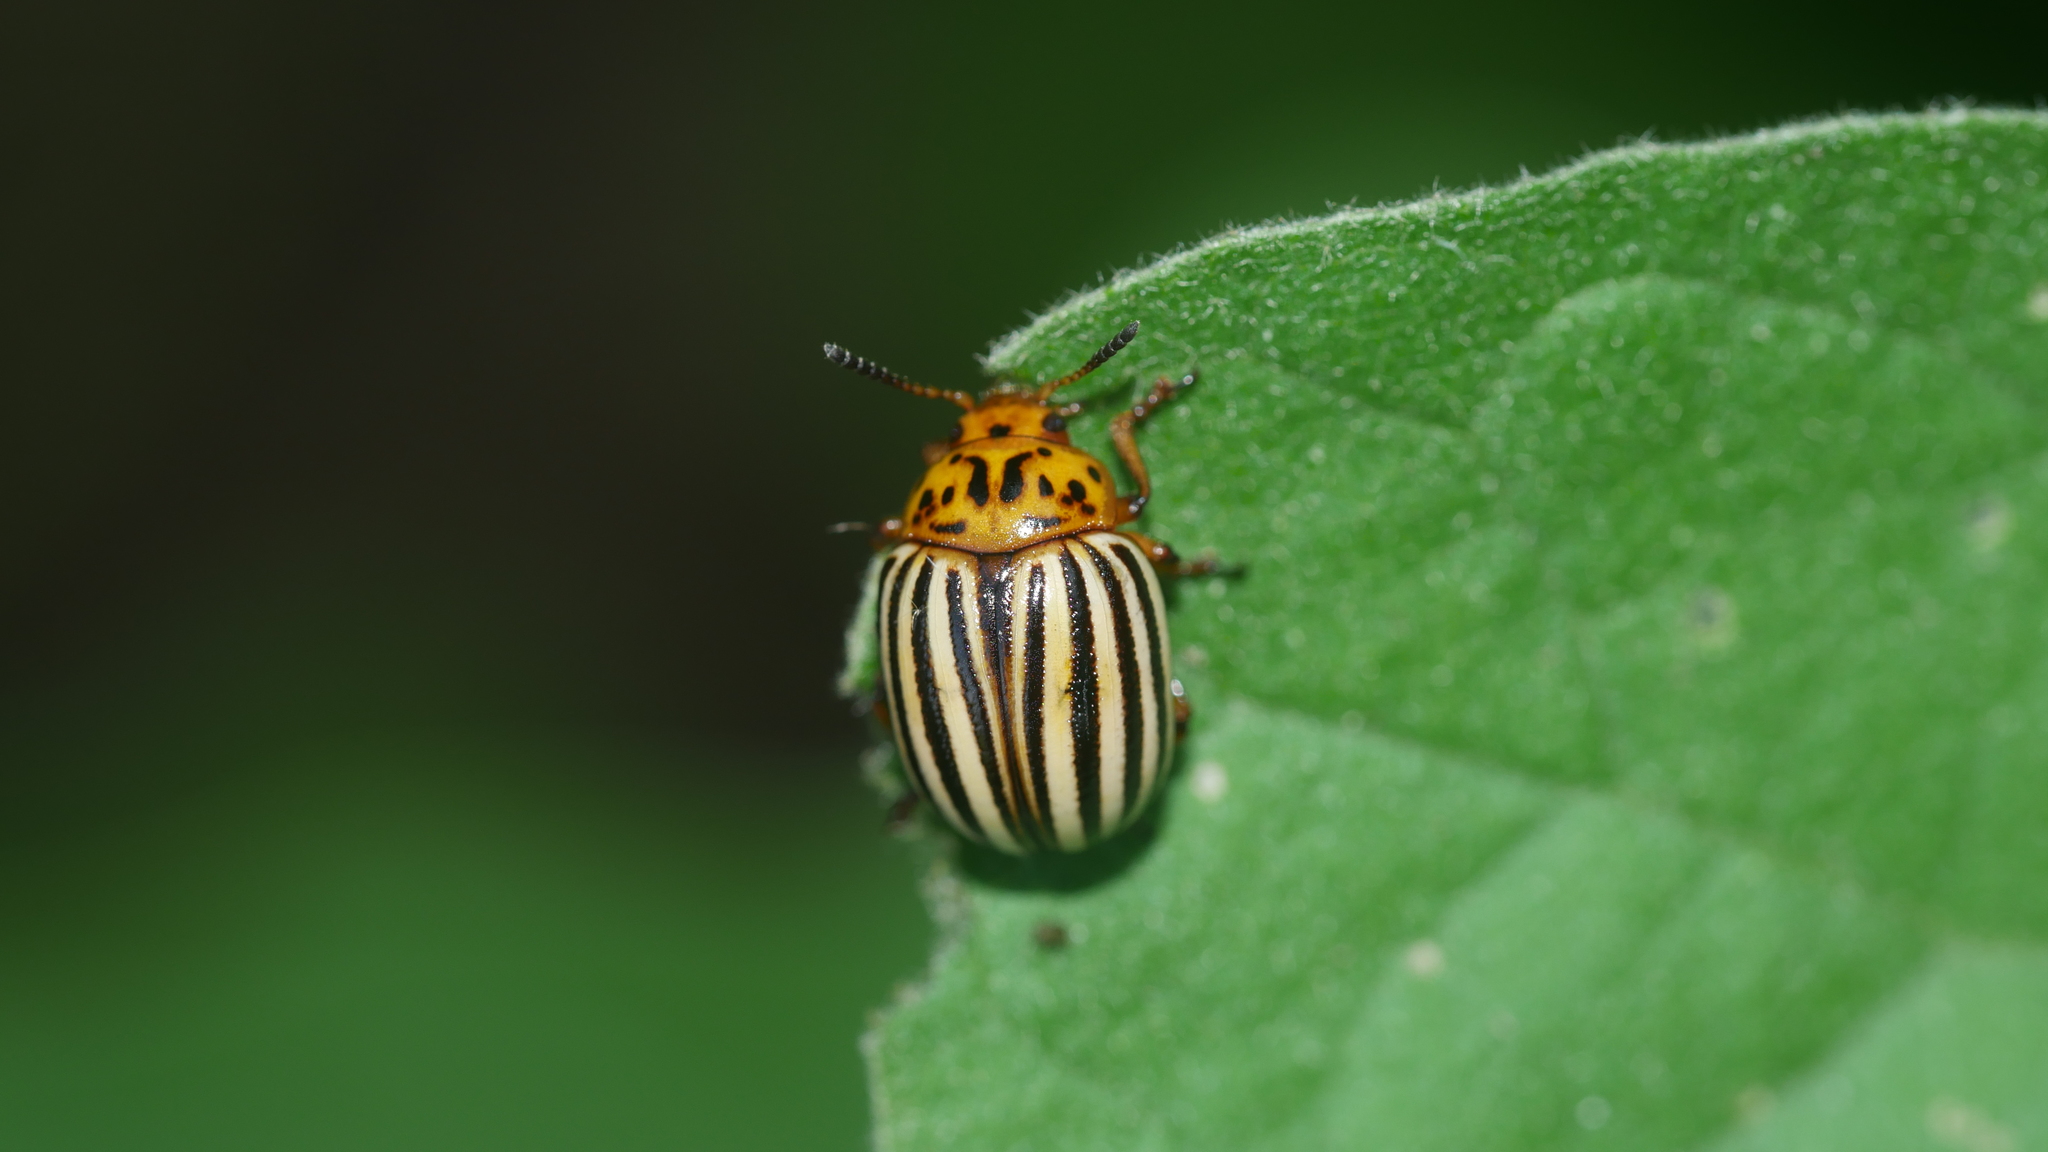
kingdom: Animalia
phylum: Arthropoda
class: Insecta
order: Coleoptera
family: Chrysomelidae
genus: Leptinotarsa
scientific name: Leptinotarsa decemlineata
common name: Colorado potato beetle
